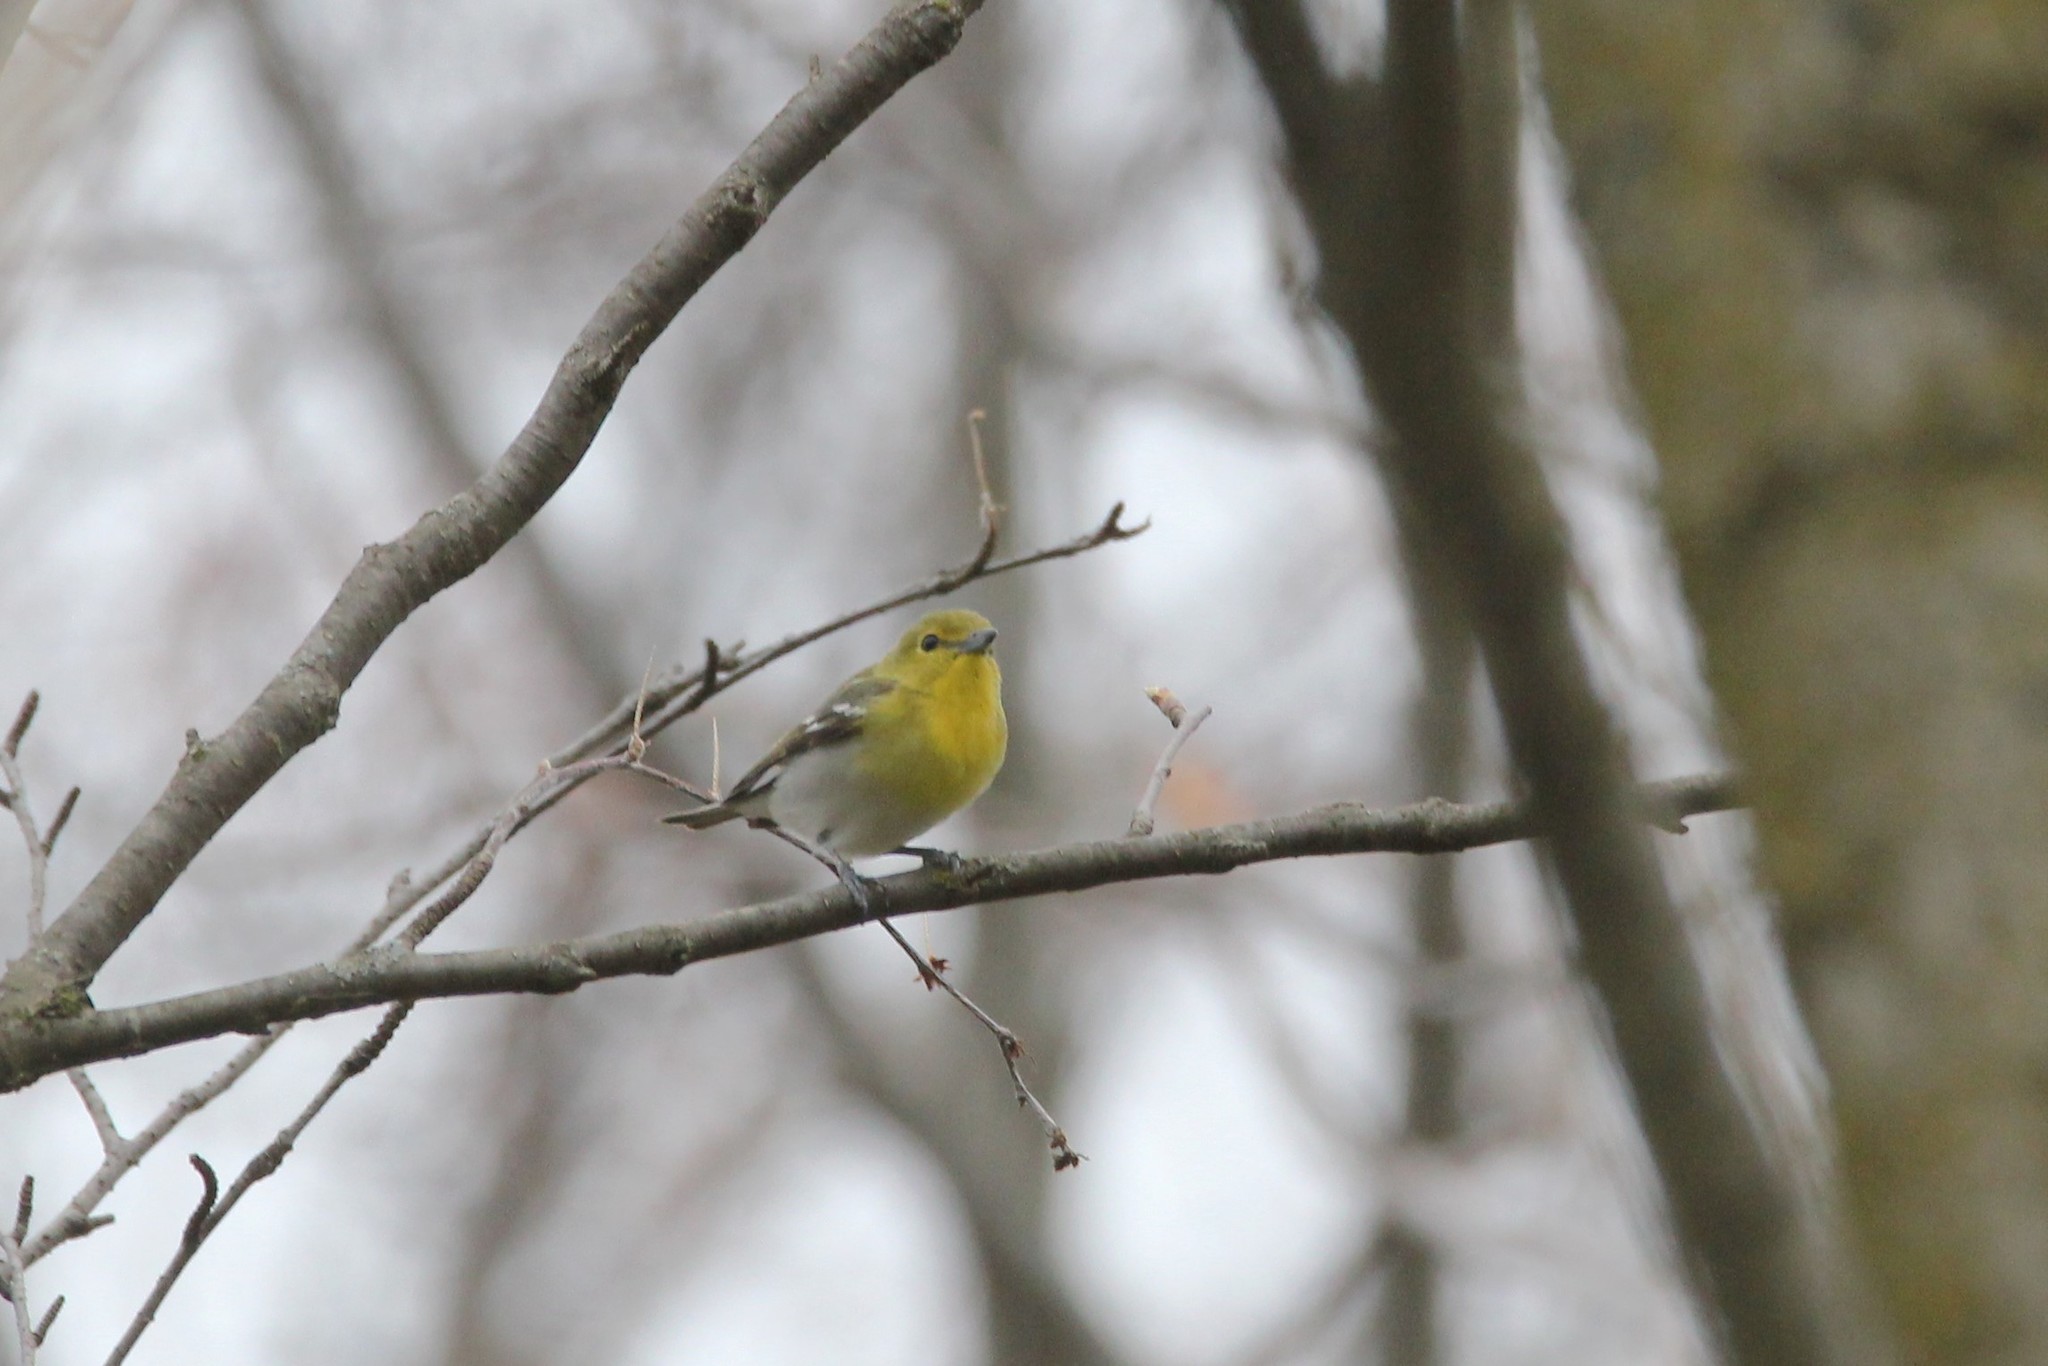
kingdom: Animalia
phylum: Chordata
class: Aves
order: Passeriformes
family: Vireonidae
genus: Vireo
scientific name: Vireo flavifrons
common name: Yellow-throated vireo
